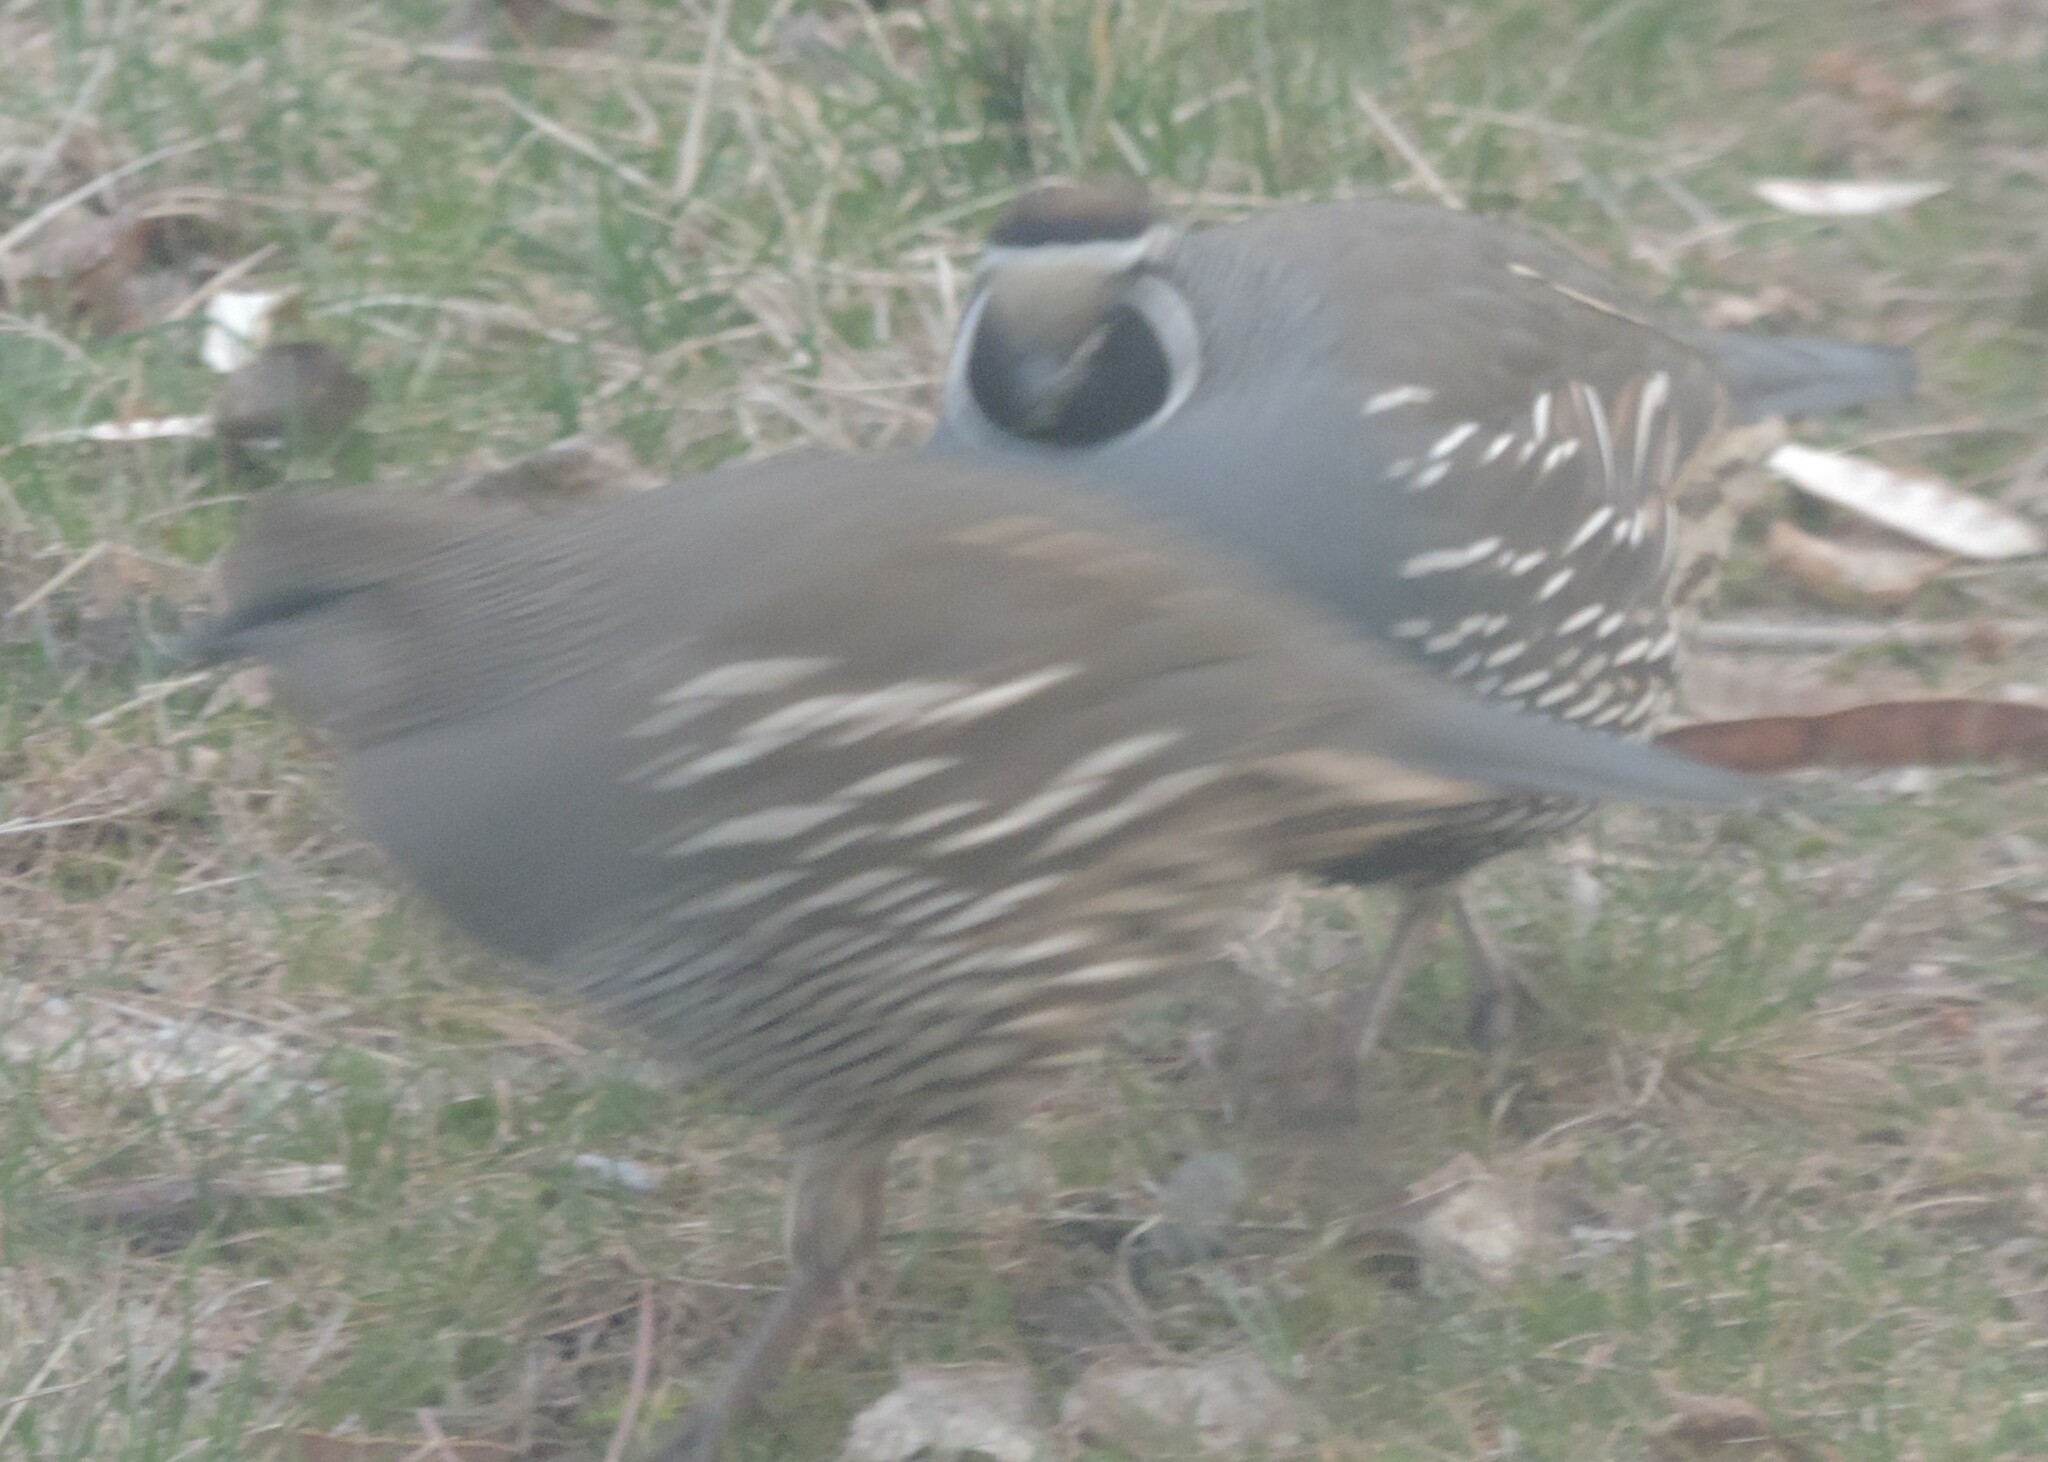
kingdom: Animalia
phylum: Chordata
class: Aves
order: Galliformes
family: Odontophoridae
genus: Callipepla
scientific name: Callipepla californica
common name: California quail
